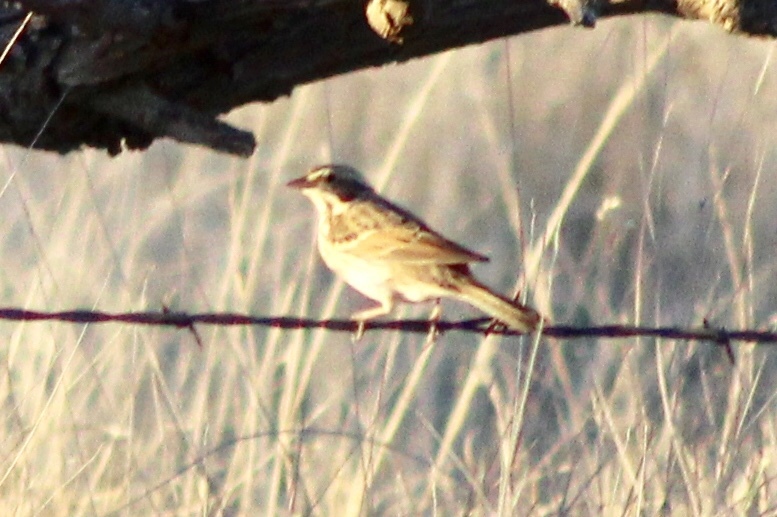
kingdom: Animalia
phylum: Chordata
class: Aves
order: Passeriformes
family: Passerellidae
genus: Passerculus
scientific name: Passerculus sandwichensis
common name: Savannah sparrow
